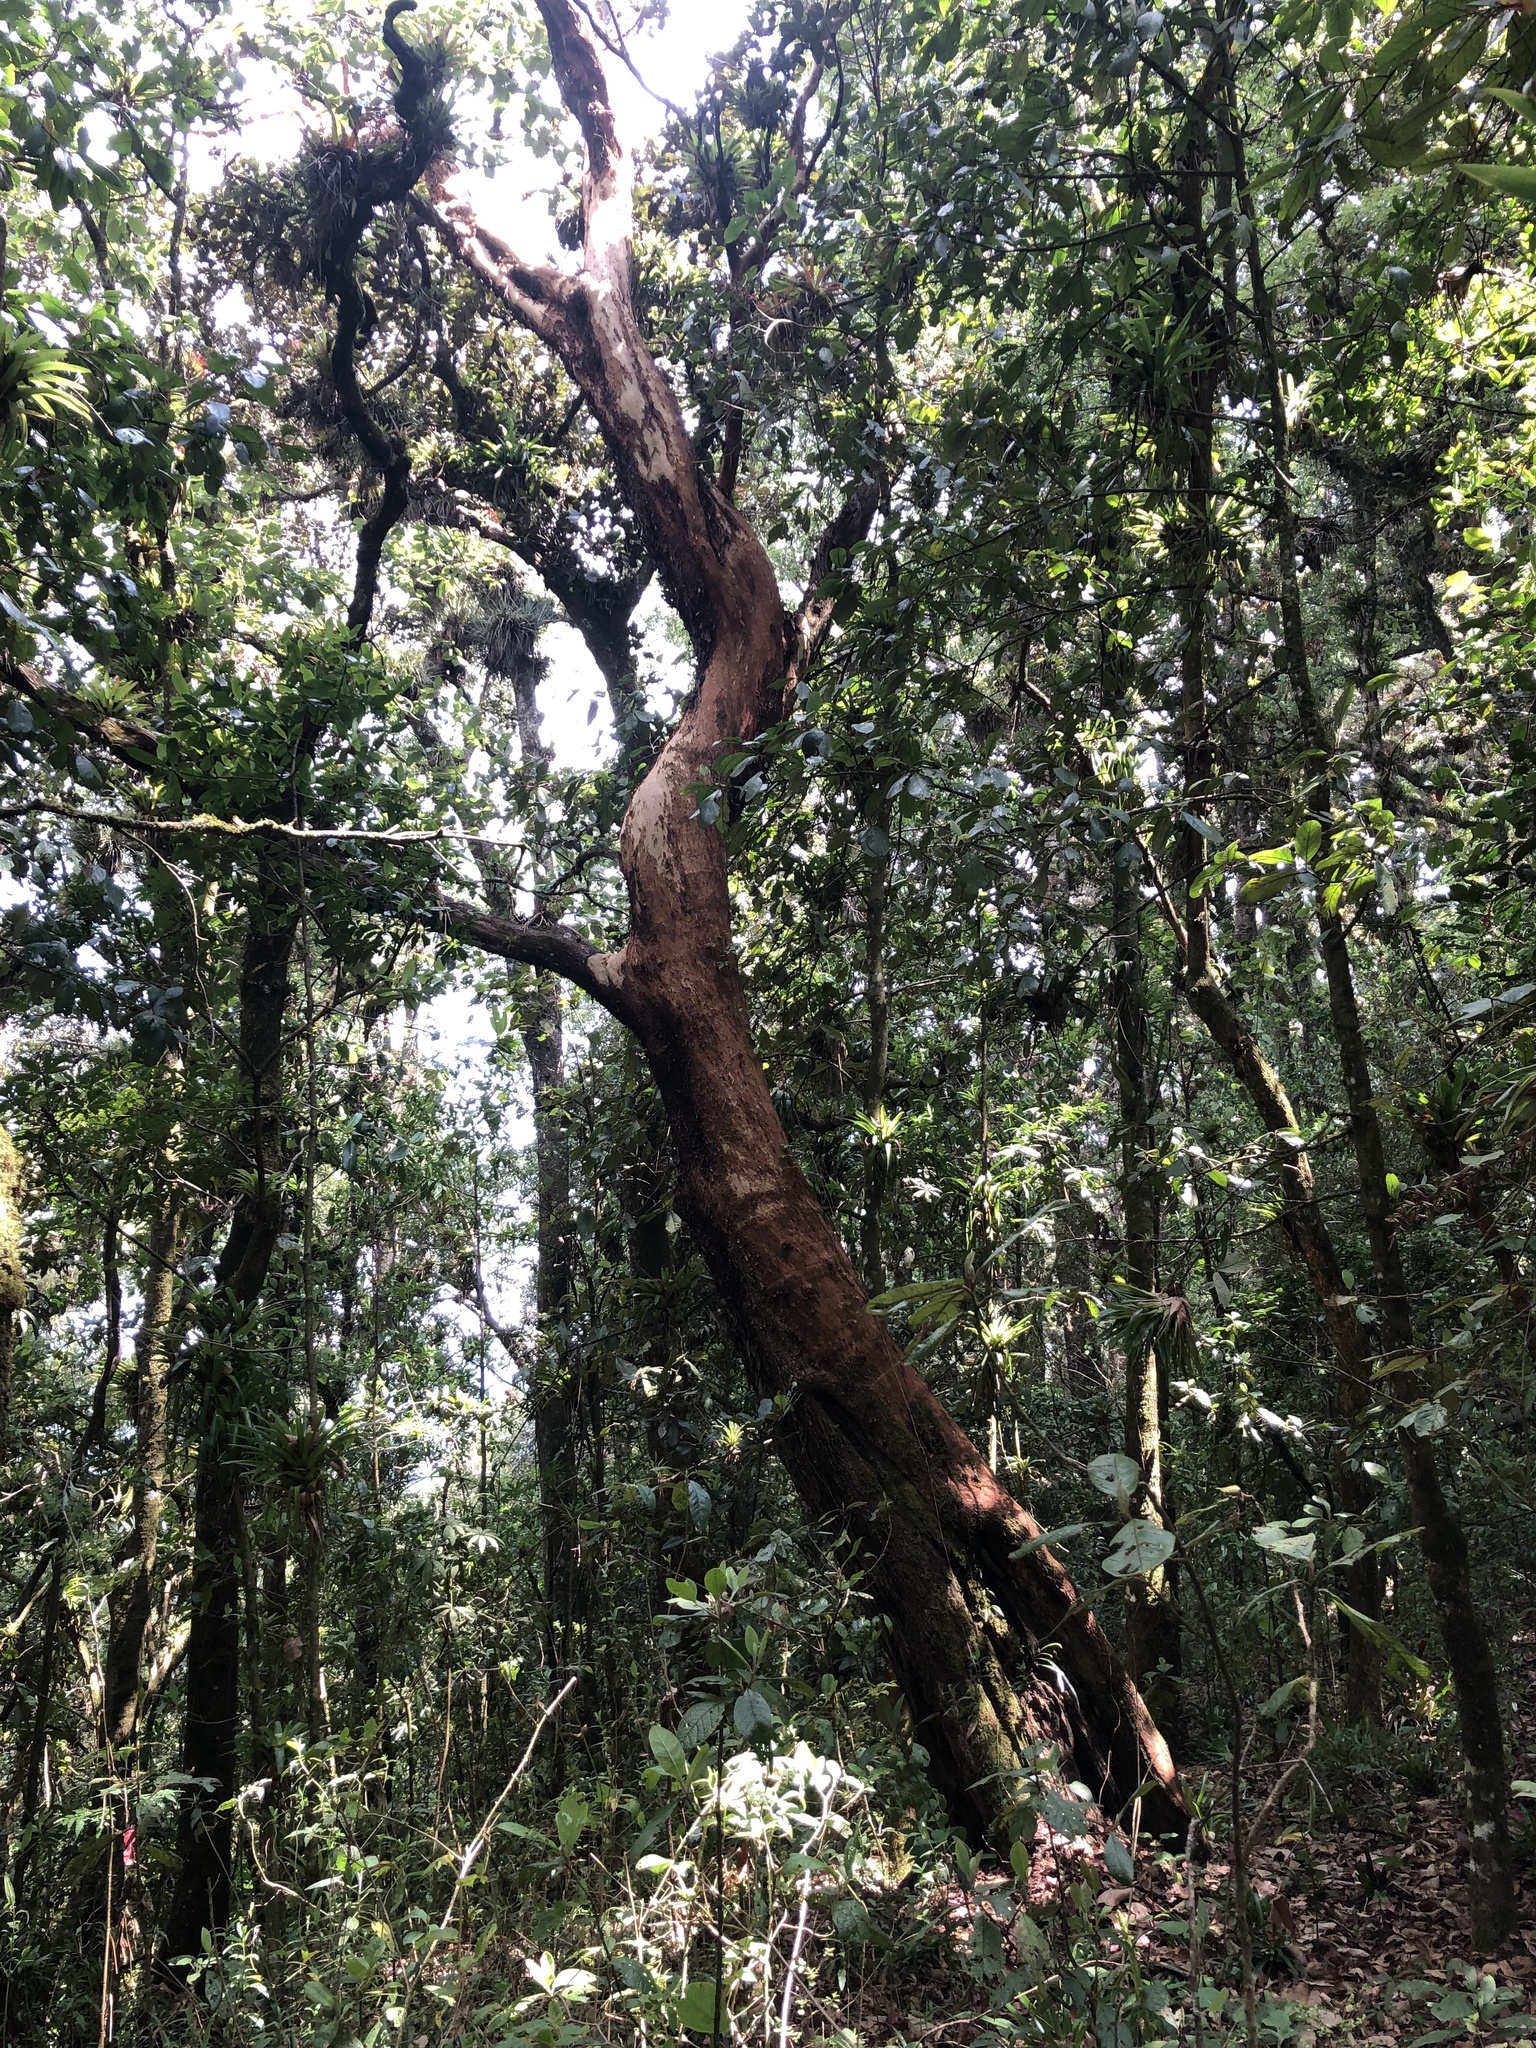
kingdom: Plantae
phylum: Tracheophyta
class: Magnoliopsida
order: Ericales
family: Ericaceae
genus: Arbutus
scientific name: Arbutus xalapensis
